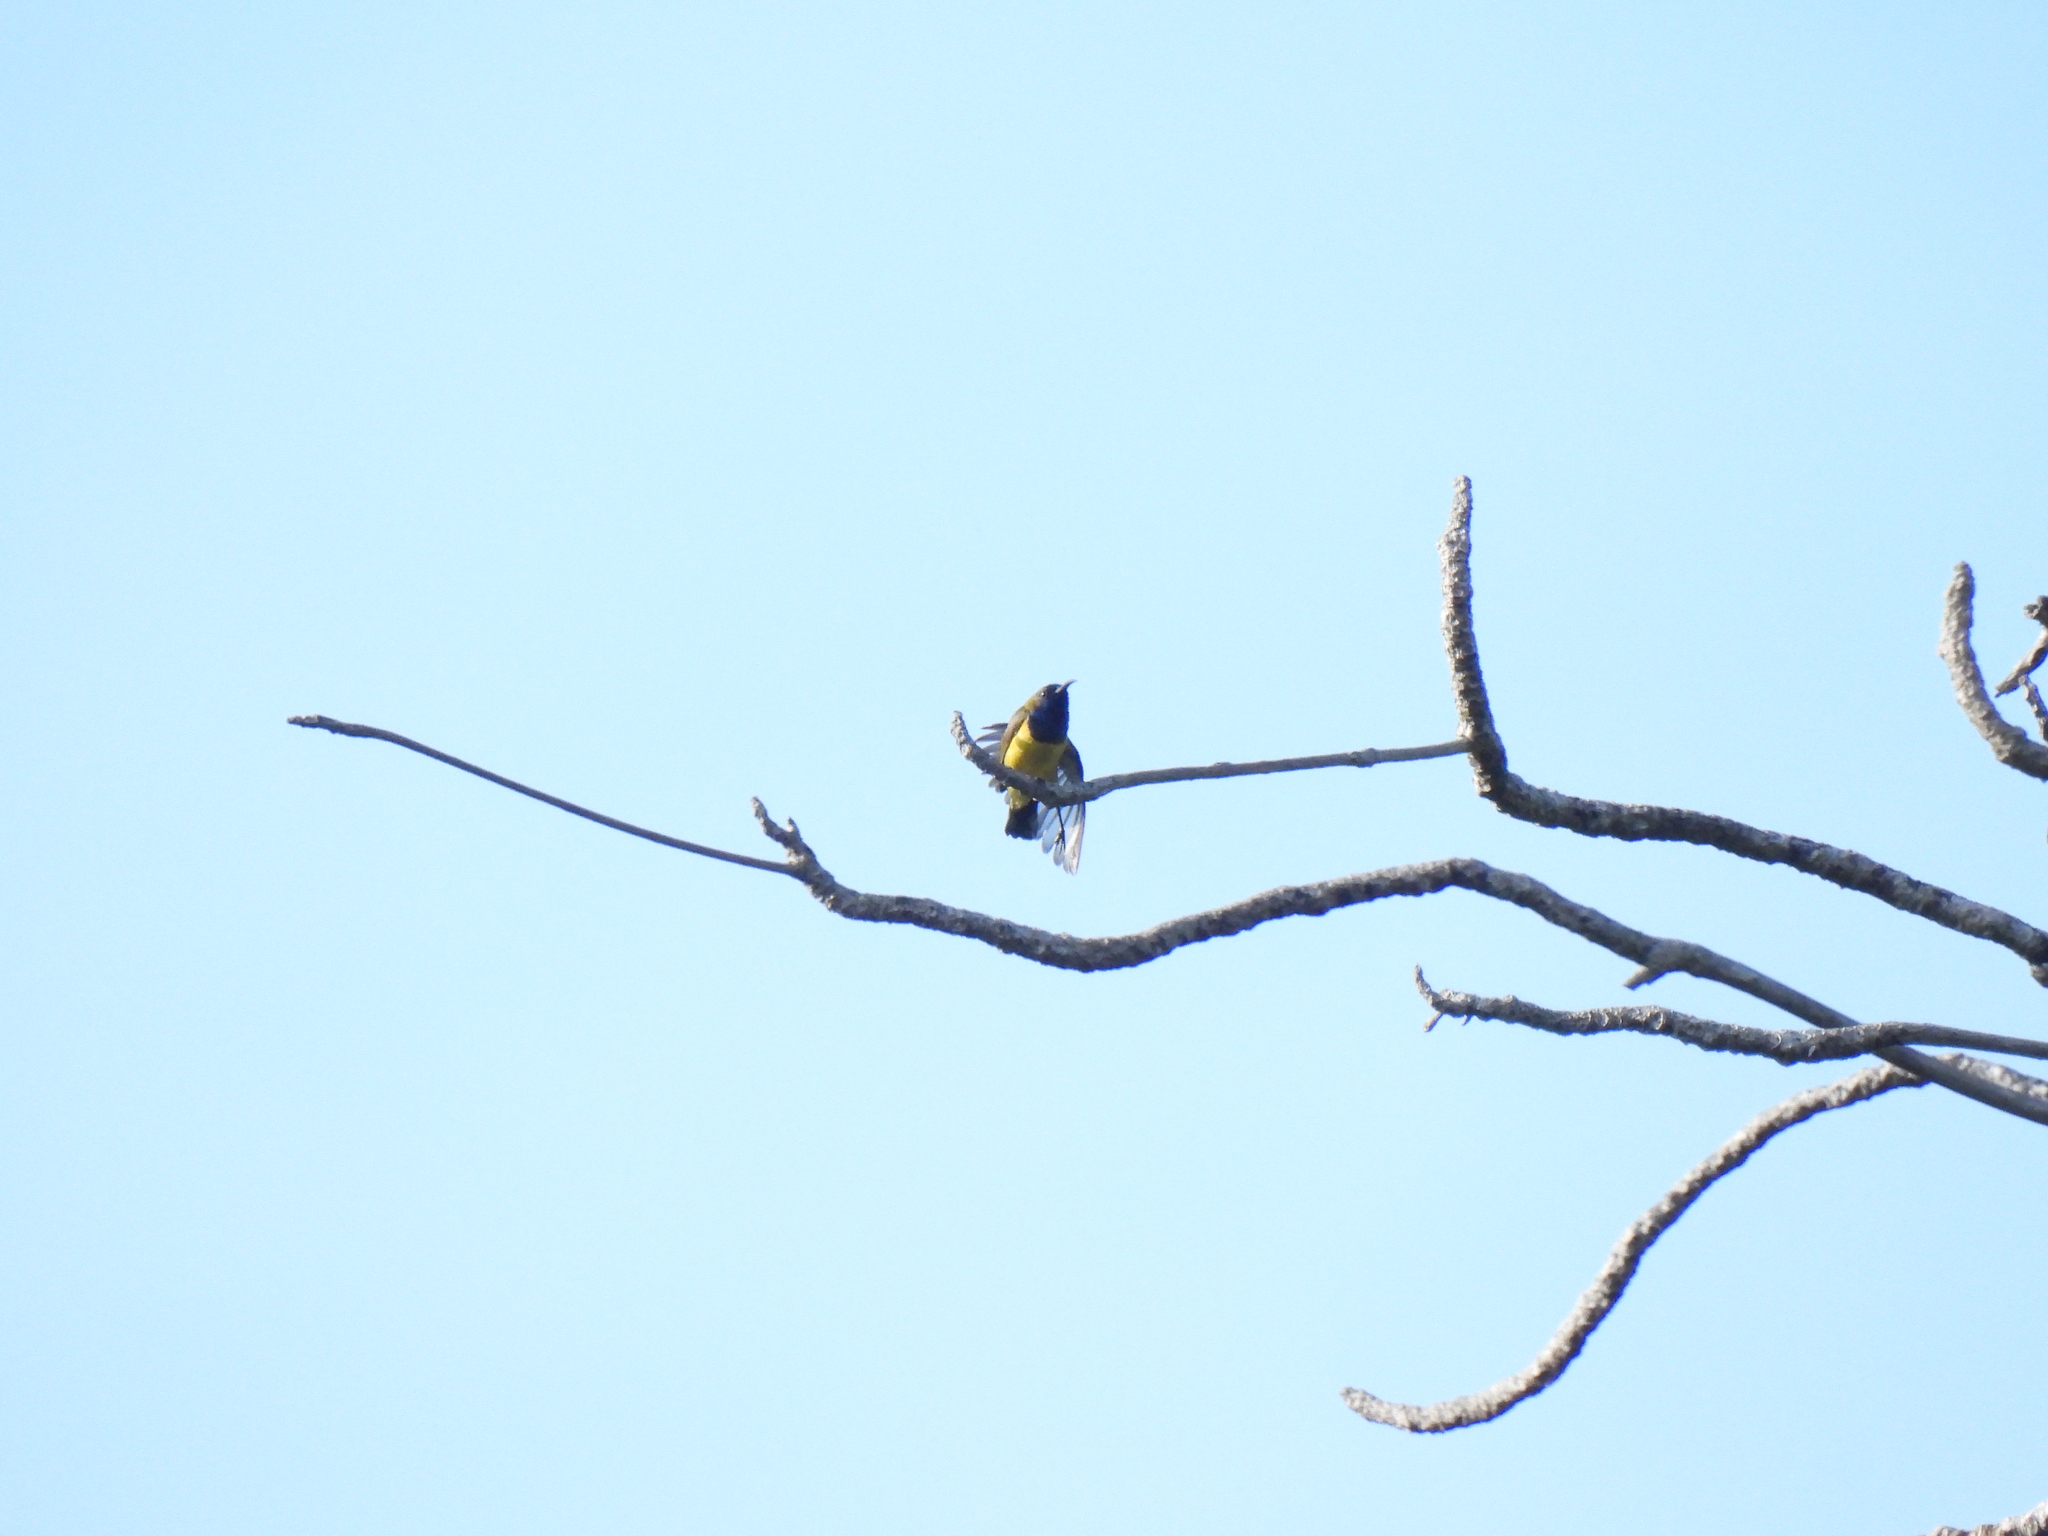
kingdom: Animalia
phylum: Chordata
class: Aves
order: Passeriformes
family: Nectariniidae
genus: Cinnyris
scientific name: Cinnyris
